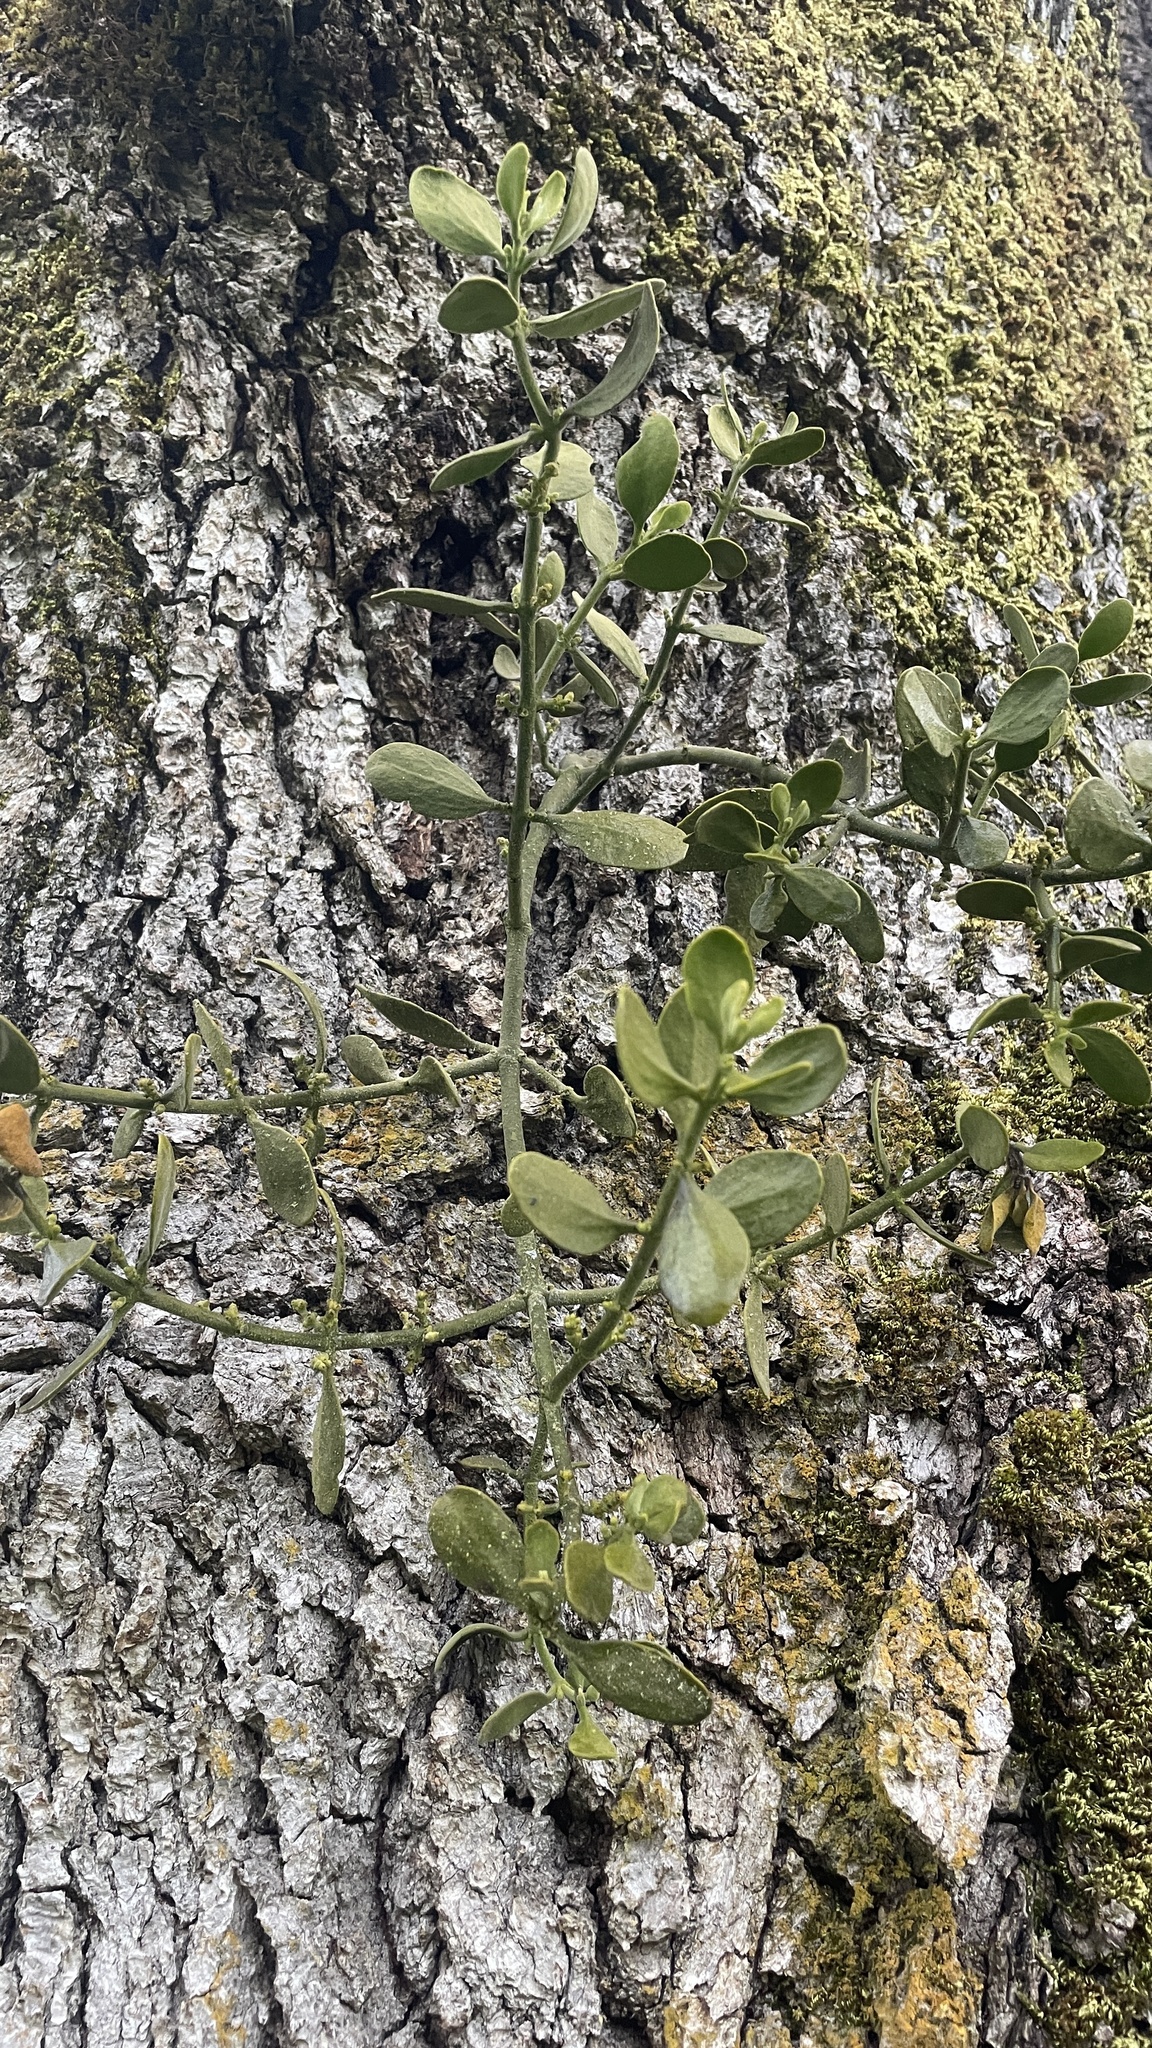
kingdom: Plantae
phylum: Tracheophyta
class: Magnoliopsida
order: Santalales
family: Viscaceae
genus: Phoradendron
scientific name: Phoradendron leucarpum
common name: Pacific mistletoe
